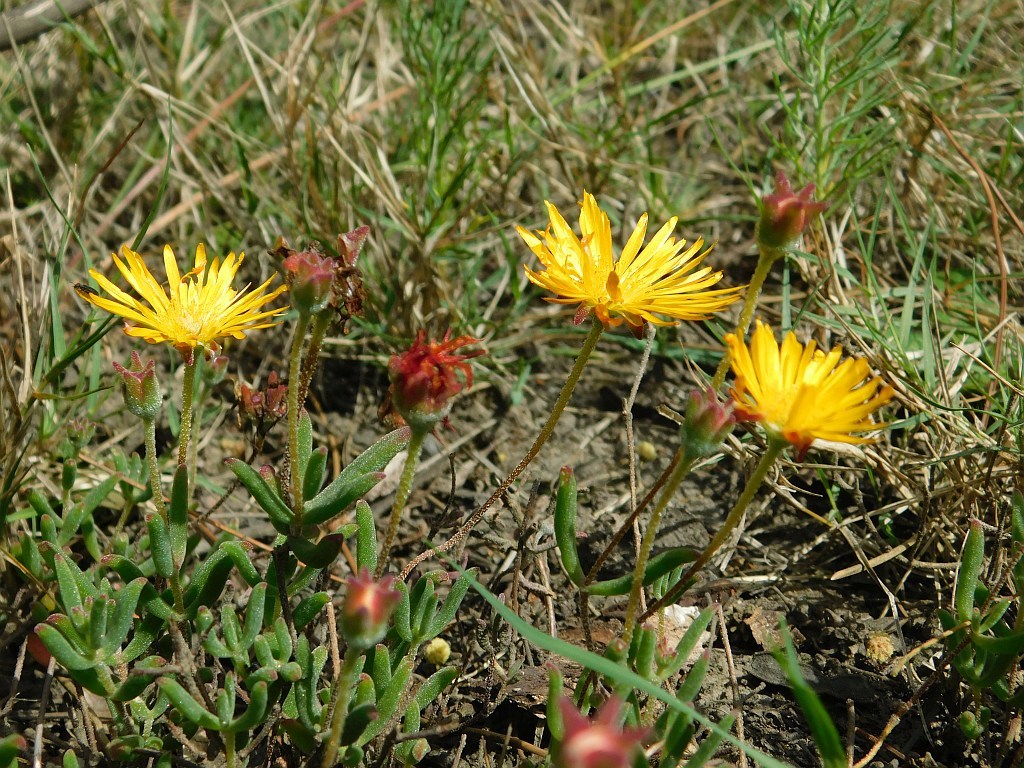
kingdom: Plantae
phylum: Tracheophyta
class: Magnoliopsida
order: Caryophyllales
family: Aizoaceae
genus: Drosanthemum
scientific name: Drosanthemum flavum
